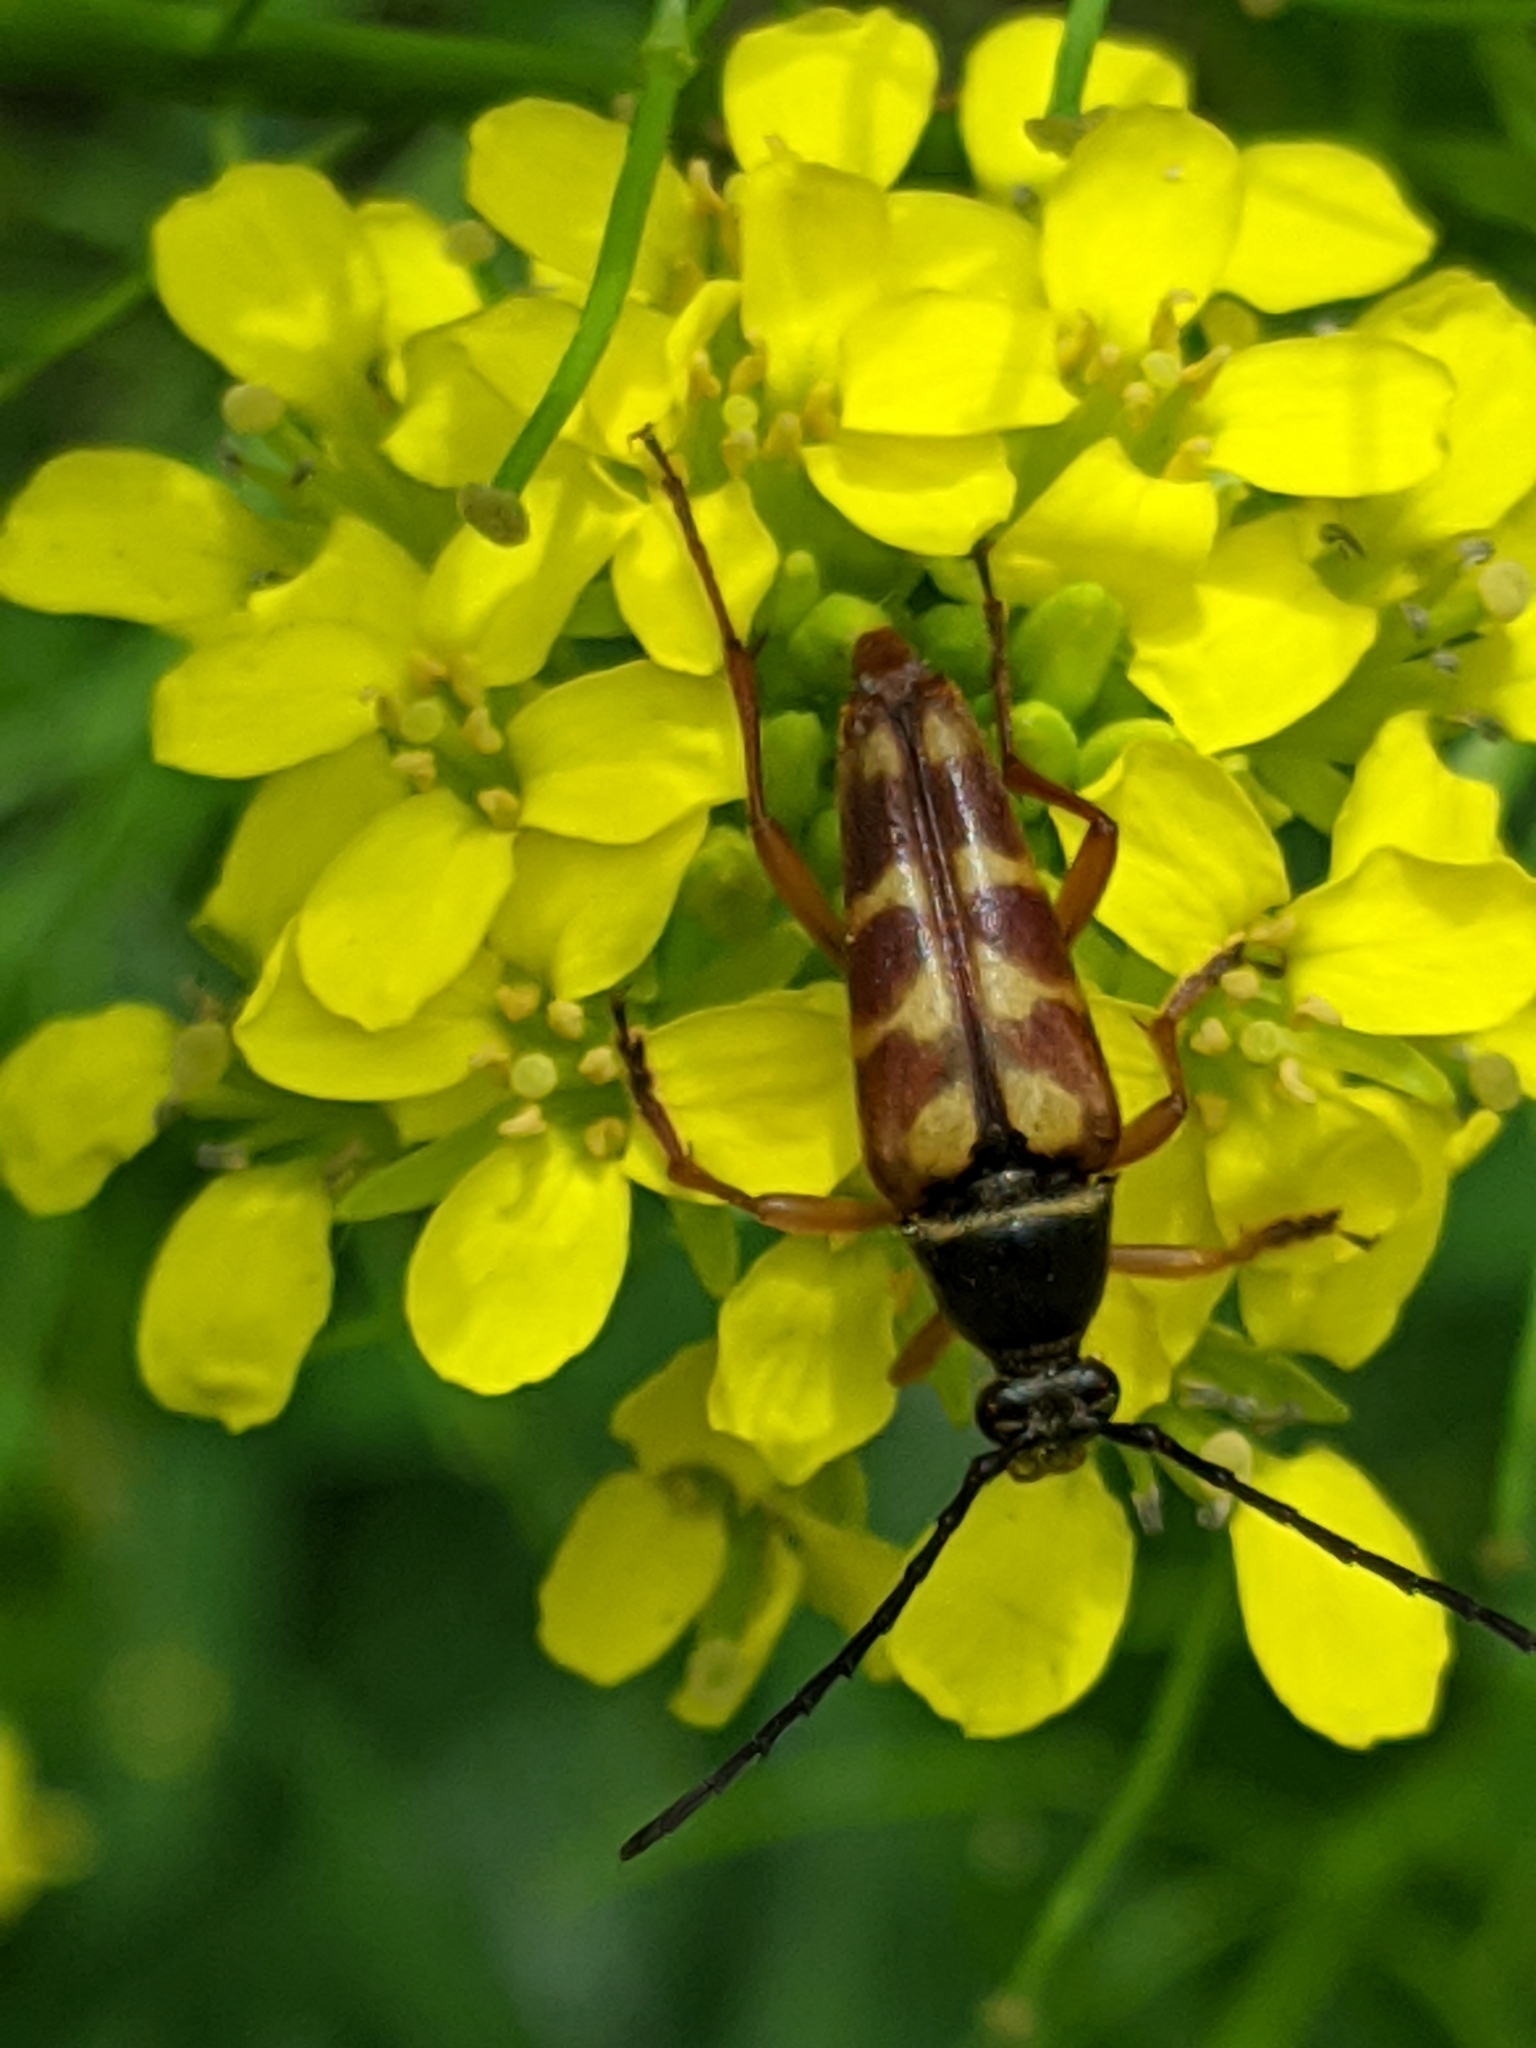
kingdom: Animalia
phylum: Arthropoda
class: Insecta
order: Coleoptera
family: Cerambycidae
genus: Typocerus
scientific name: Typocerus velutinus
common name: Banded longhorn beetle
